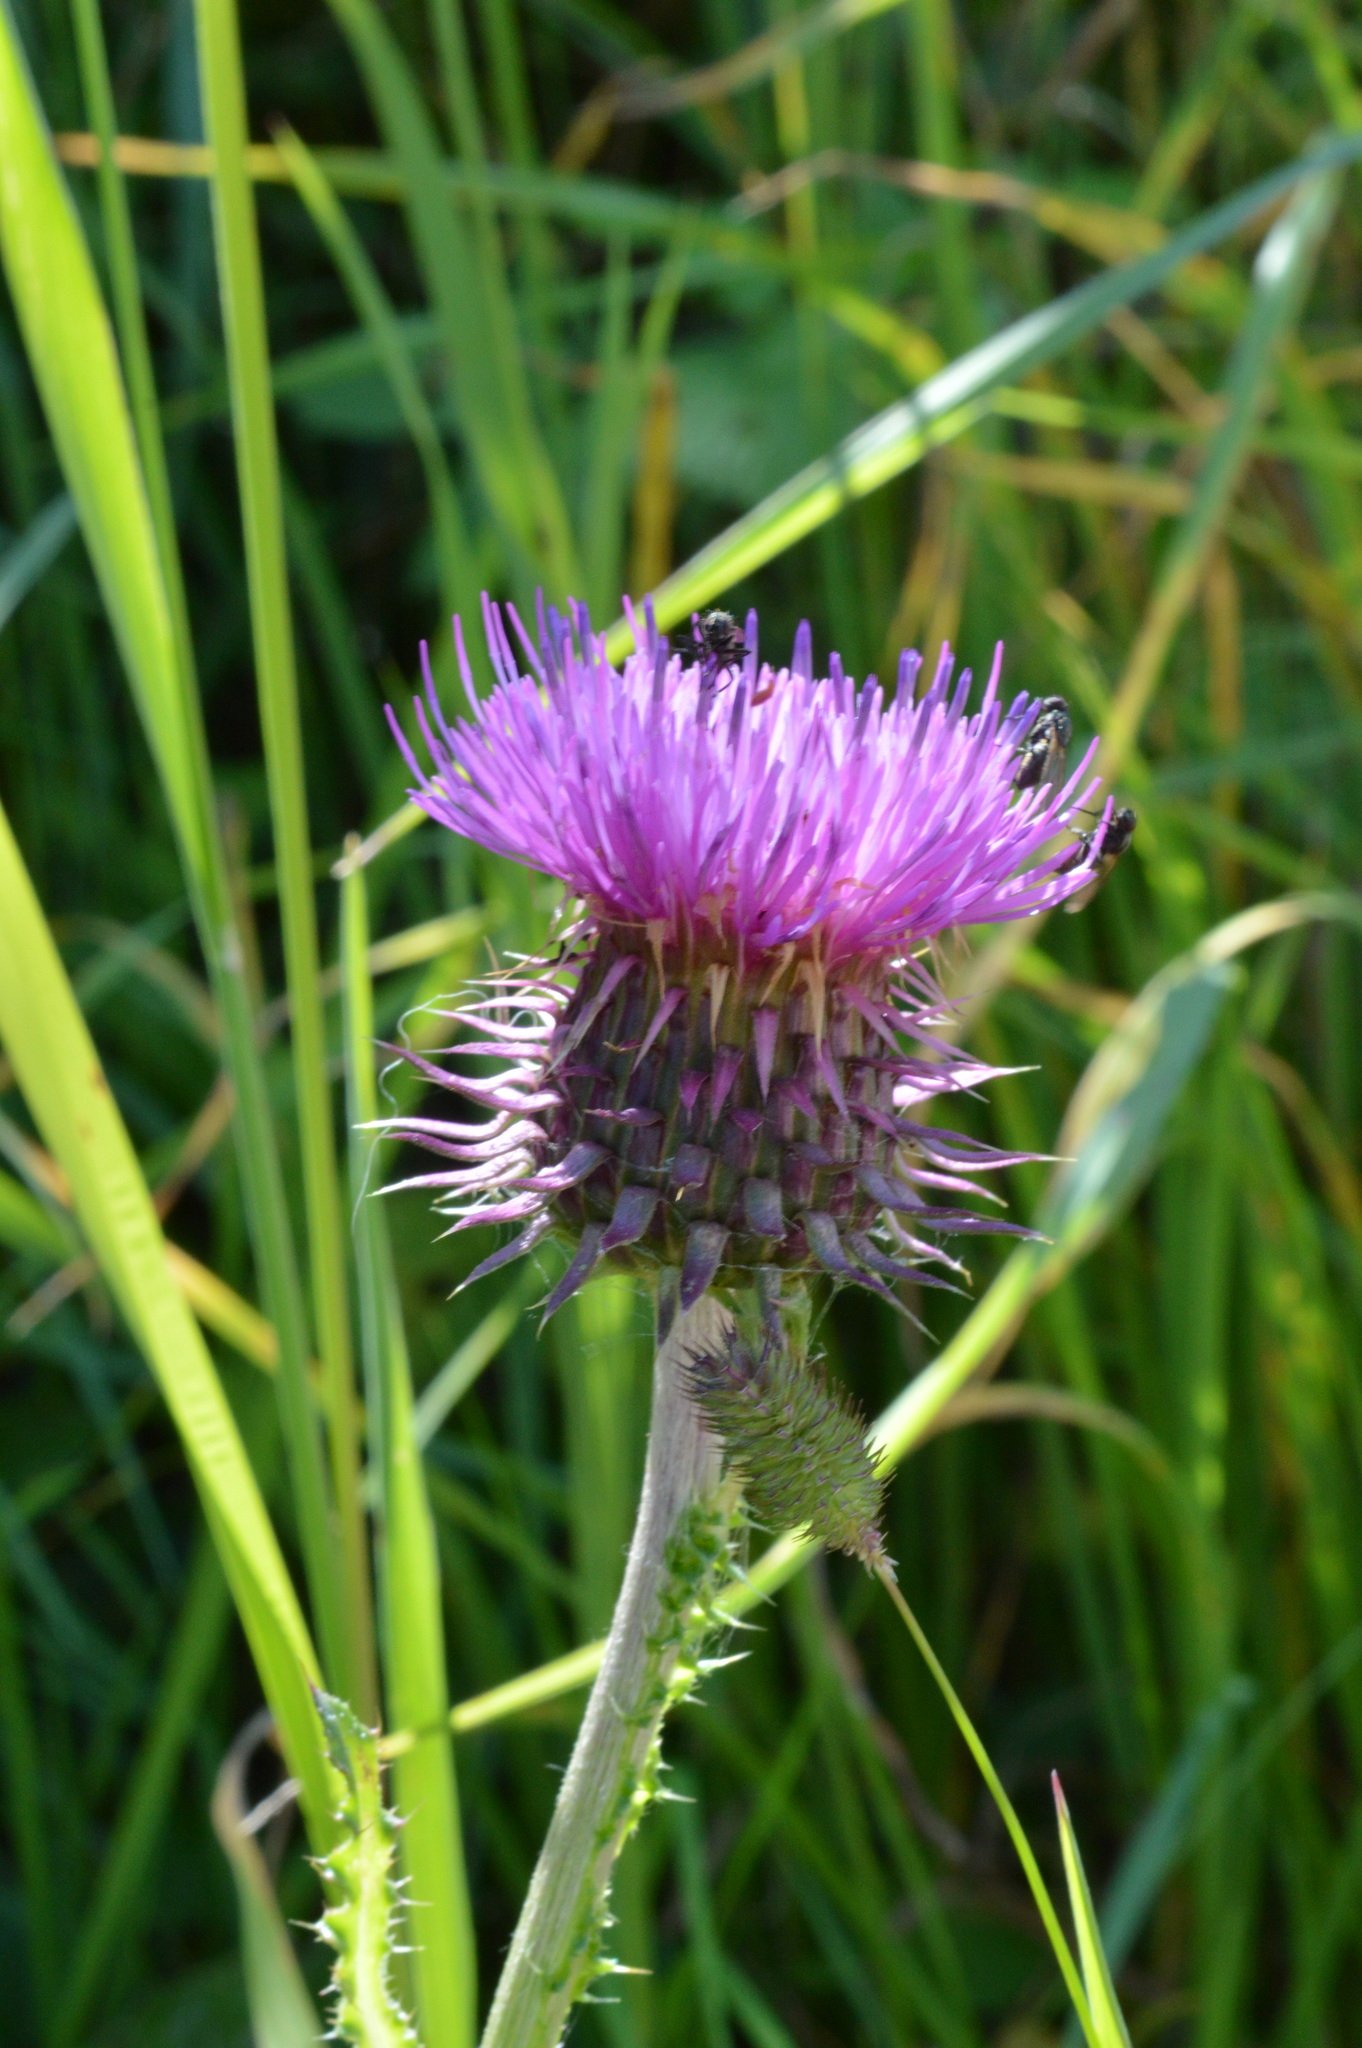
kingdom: Plantae
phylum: Tracheophyta
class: Magnoliopsida
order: Asterales
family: Asteraceae
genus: Carduus
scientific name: Carduus acanthoides
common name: Plumeless thistle
